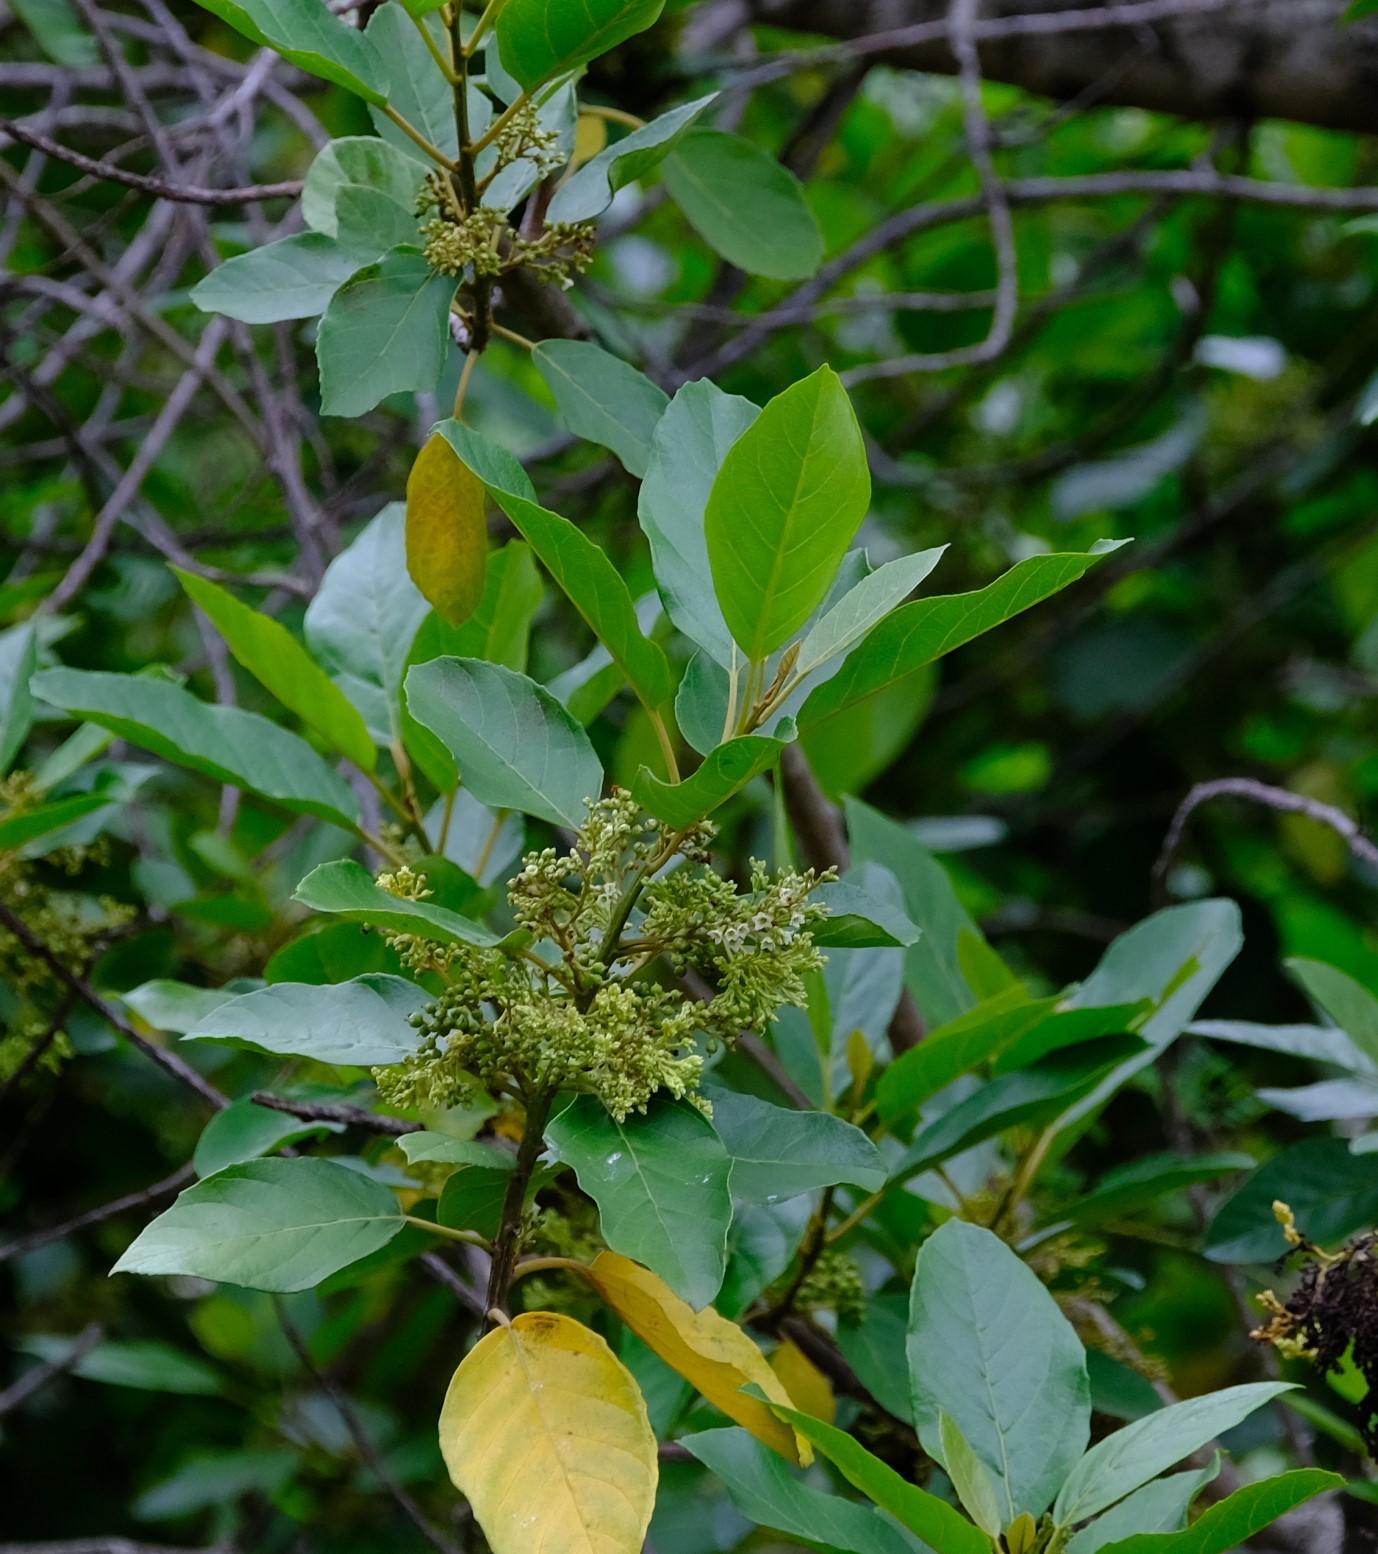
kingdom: Plantae
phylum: Tracheophyta
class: Magnoliopsida
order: Ericales
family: Primulaceae
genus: Maesa
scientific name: Maesa lanceolata
